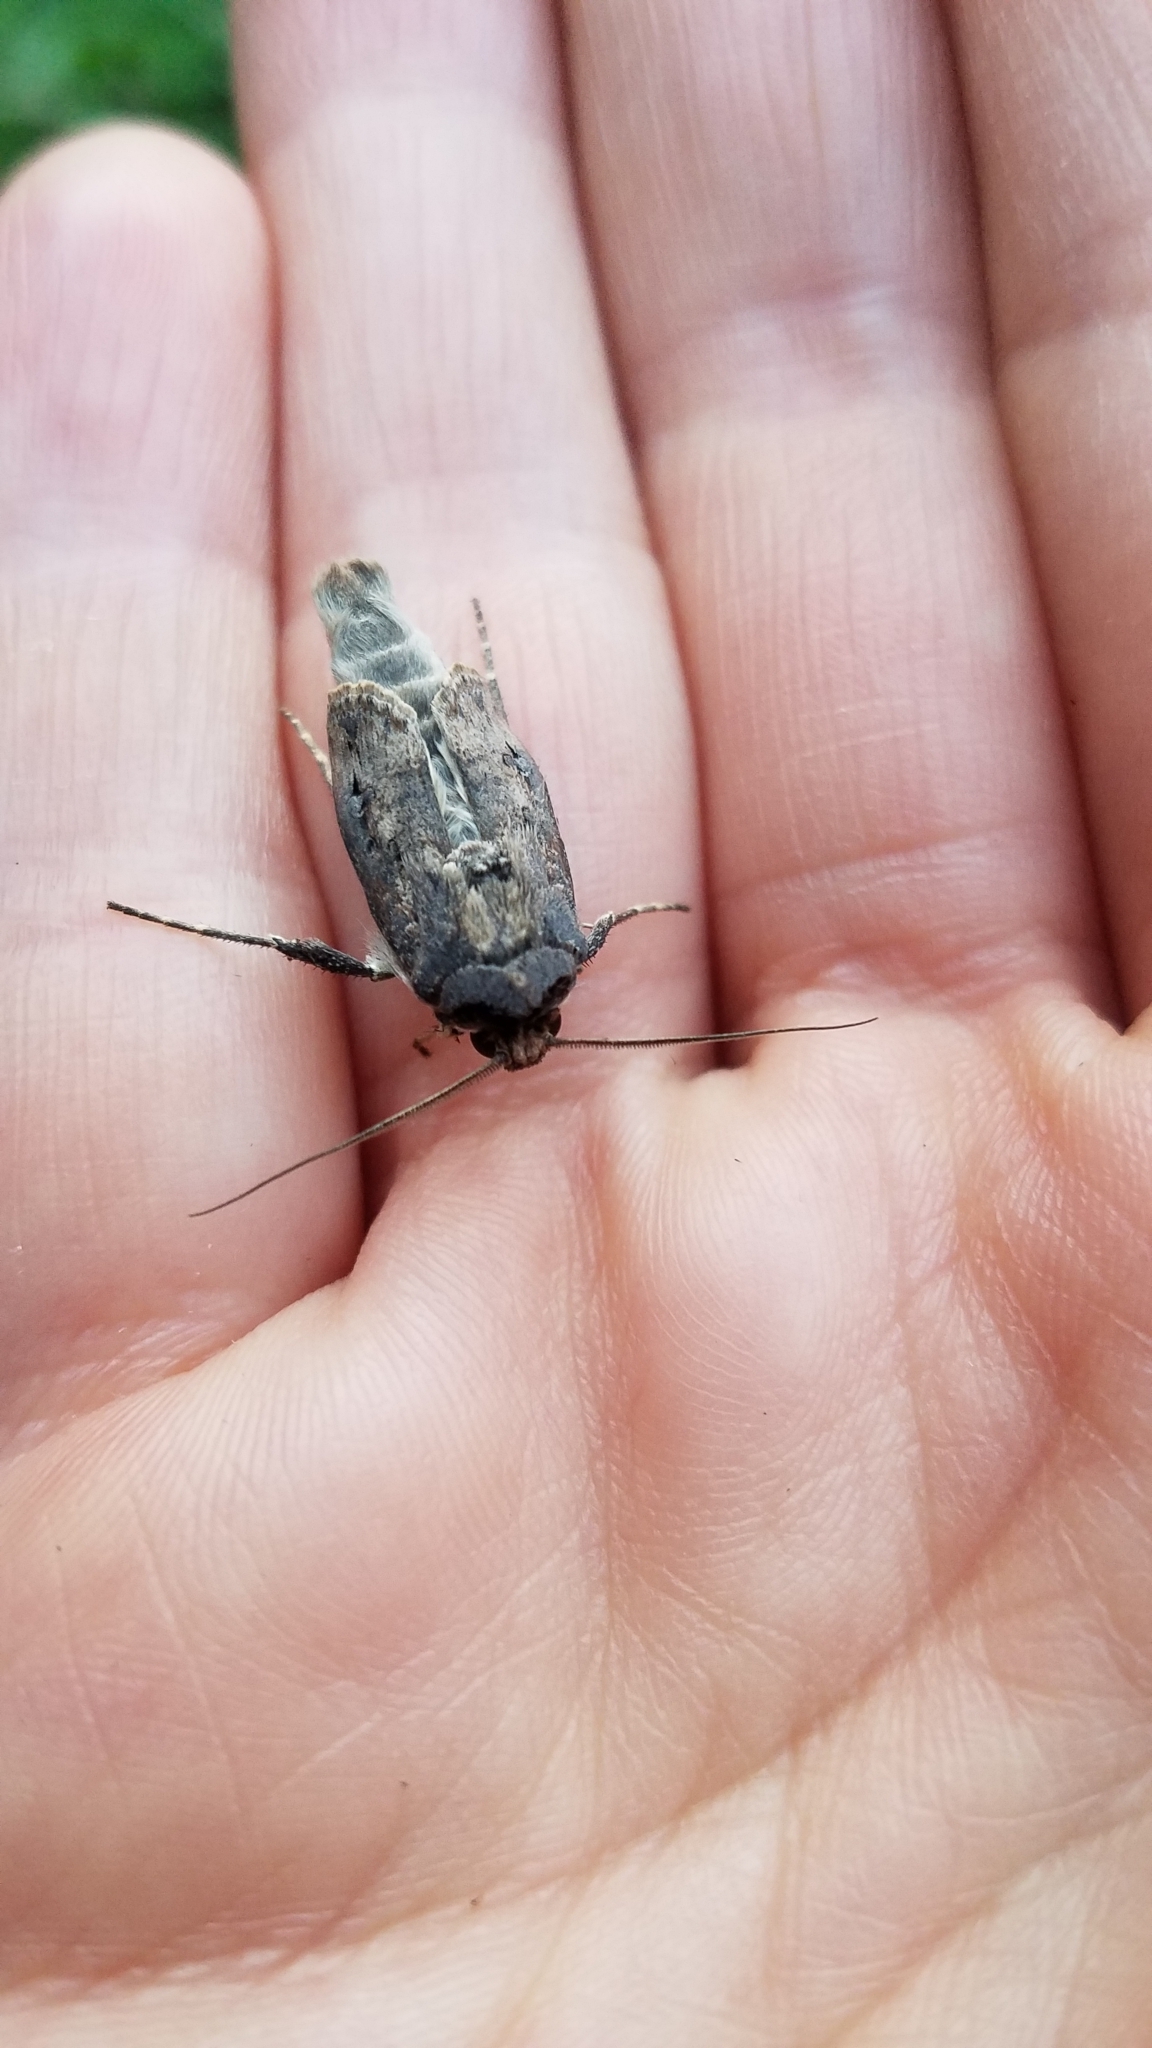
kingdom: Animalia
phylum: Arthropoda
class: Insecta
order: Lepidoptera
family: Noctuidae
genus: Agrotis
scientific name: Agrotis ipsilon
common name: Dark sword-grass
